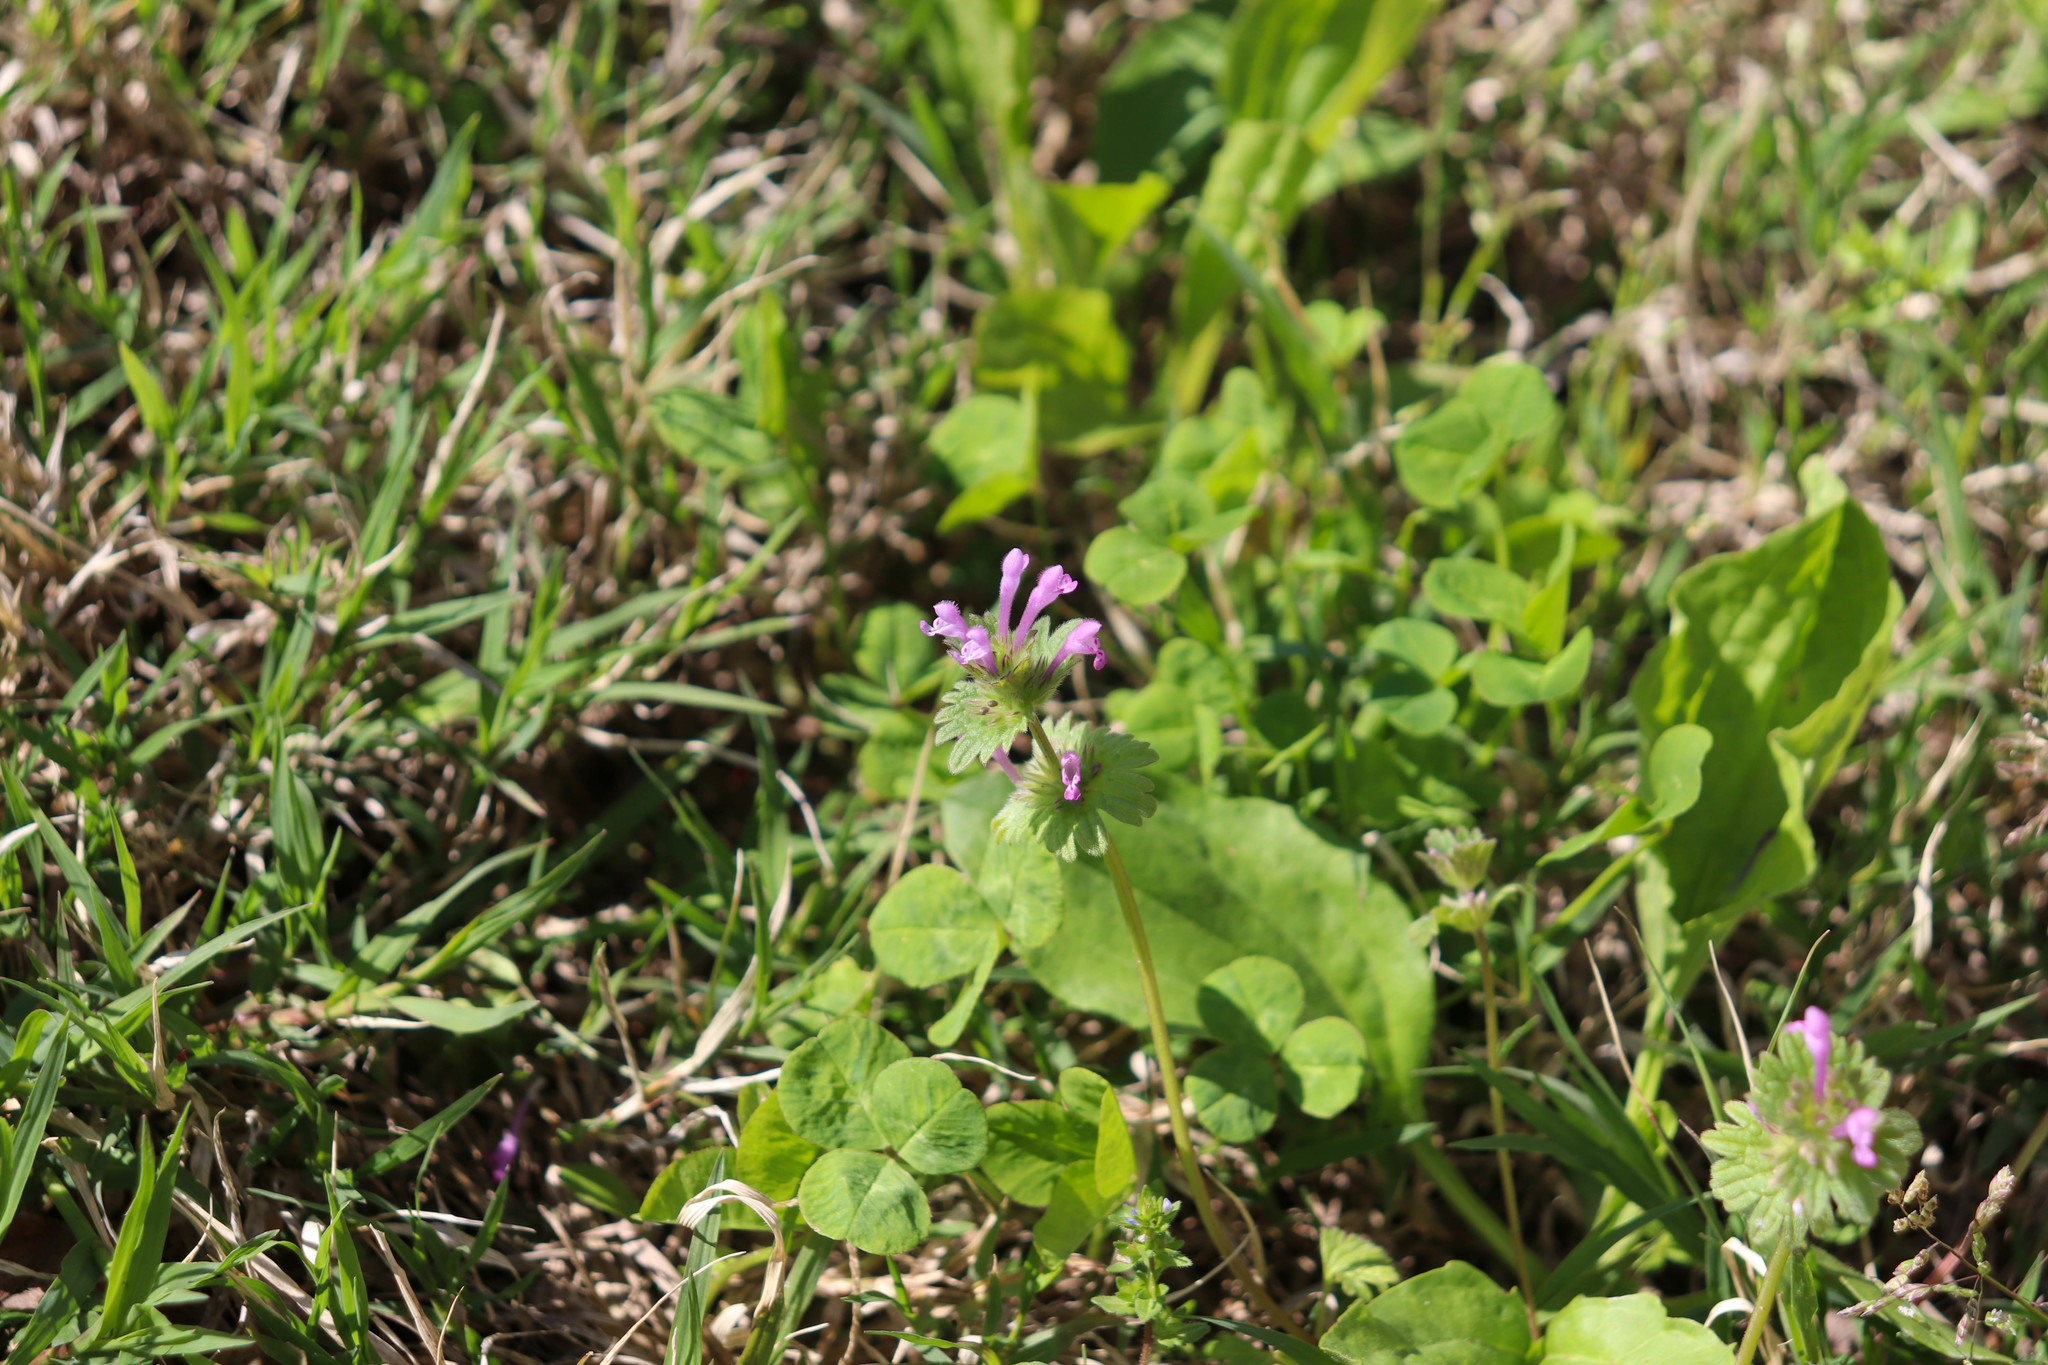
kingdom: Plantae
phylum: Tracheophyta
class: Magnoliopsida
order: Lamiales
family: Lamiaceae
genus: Lamium
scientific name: Lamium amplexicaule
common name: Henbit dead-nettle
